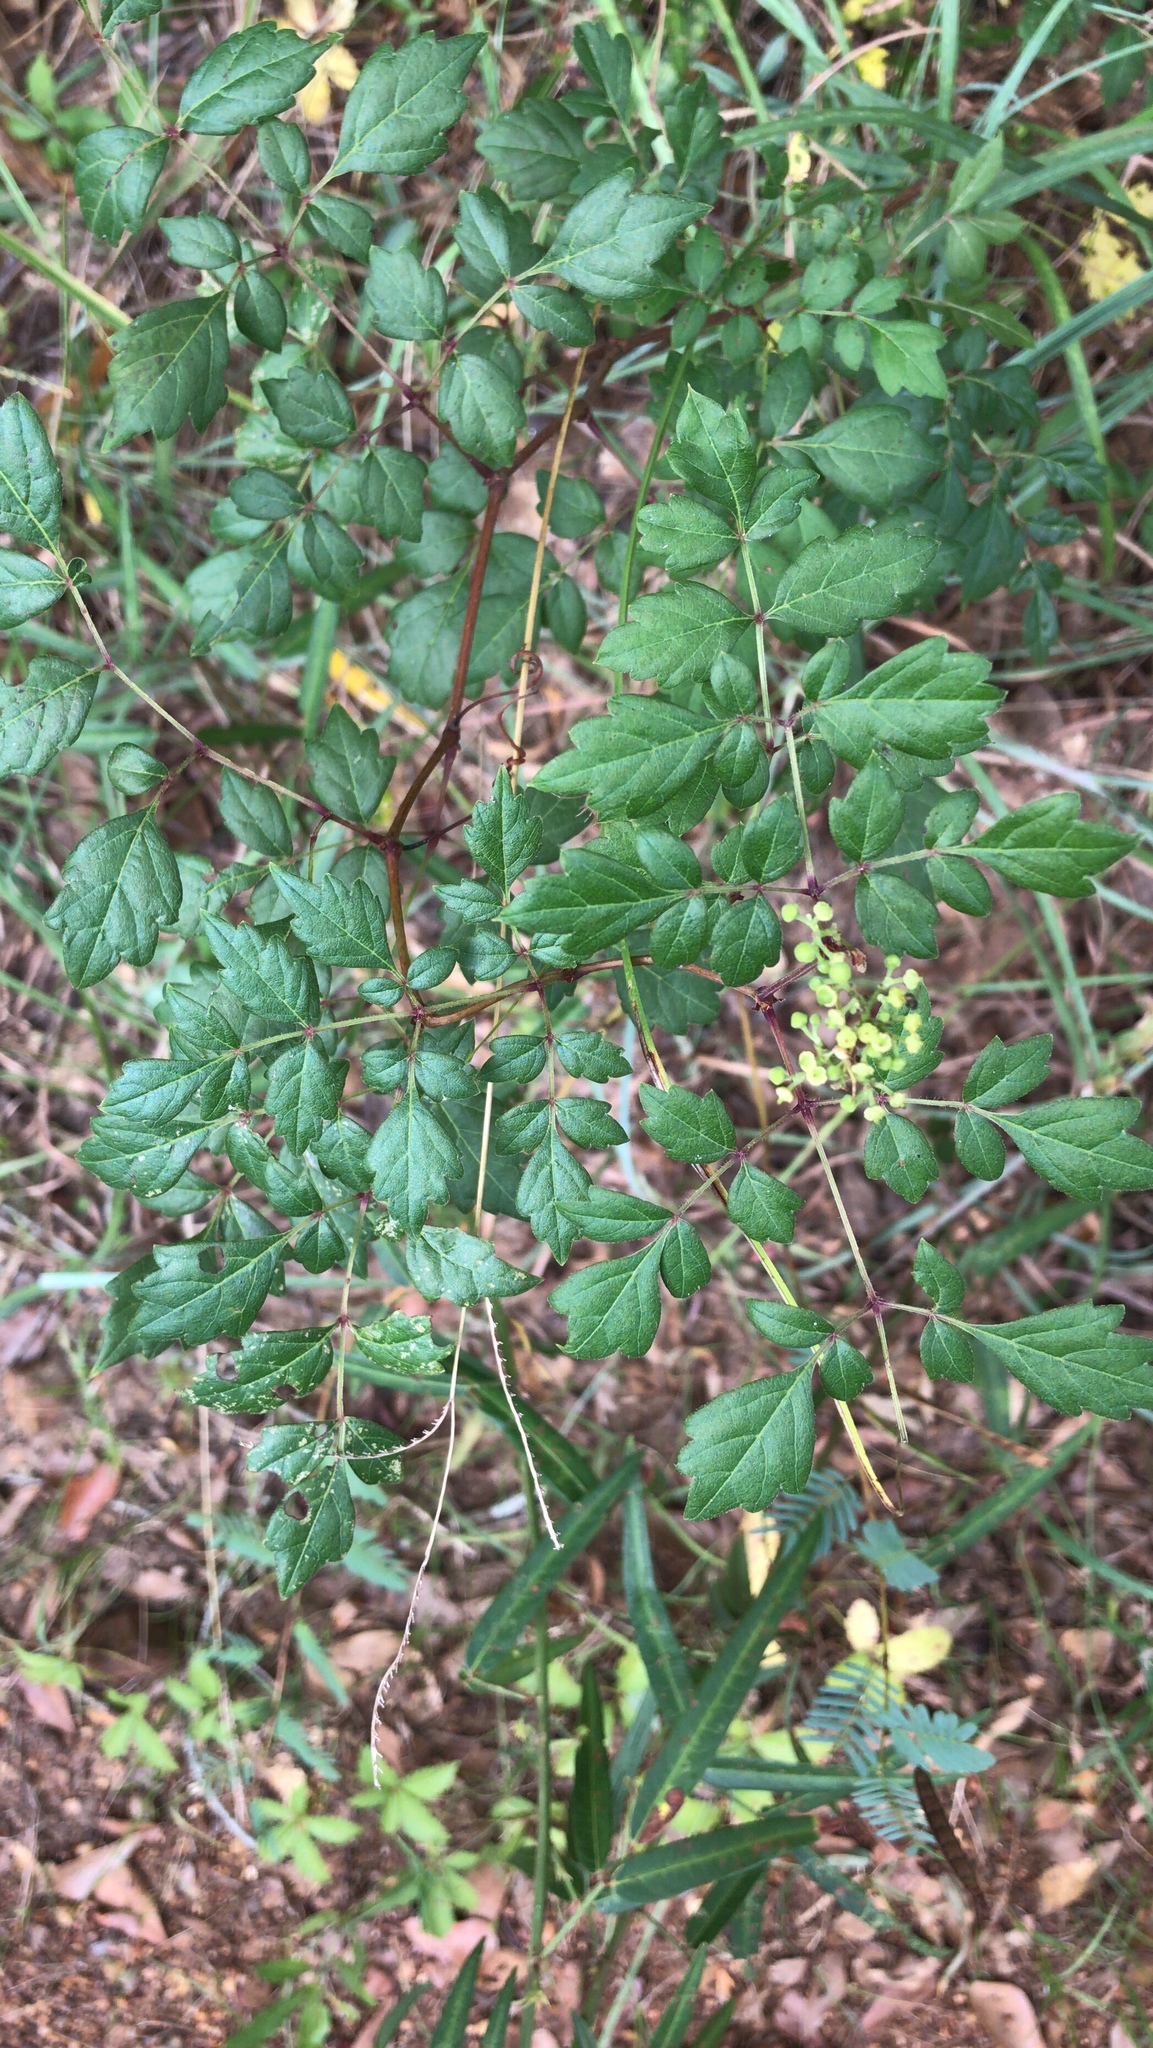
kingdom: Plantae
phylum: Tracheophyta
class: Magnoliopsida
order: Vitales
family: Vitaceae
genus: Nekemias
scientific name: Nekemias arborea
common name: Peppervine
